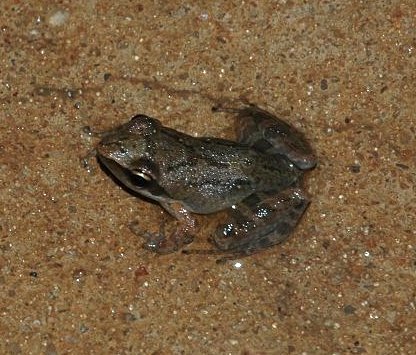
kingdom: Animalia
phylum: Chordata
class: Amphibia
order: Anura
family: Mantellidae
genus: Blommersia
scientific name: Blommersia wittei
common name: Witte's madagascar frog
